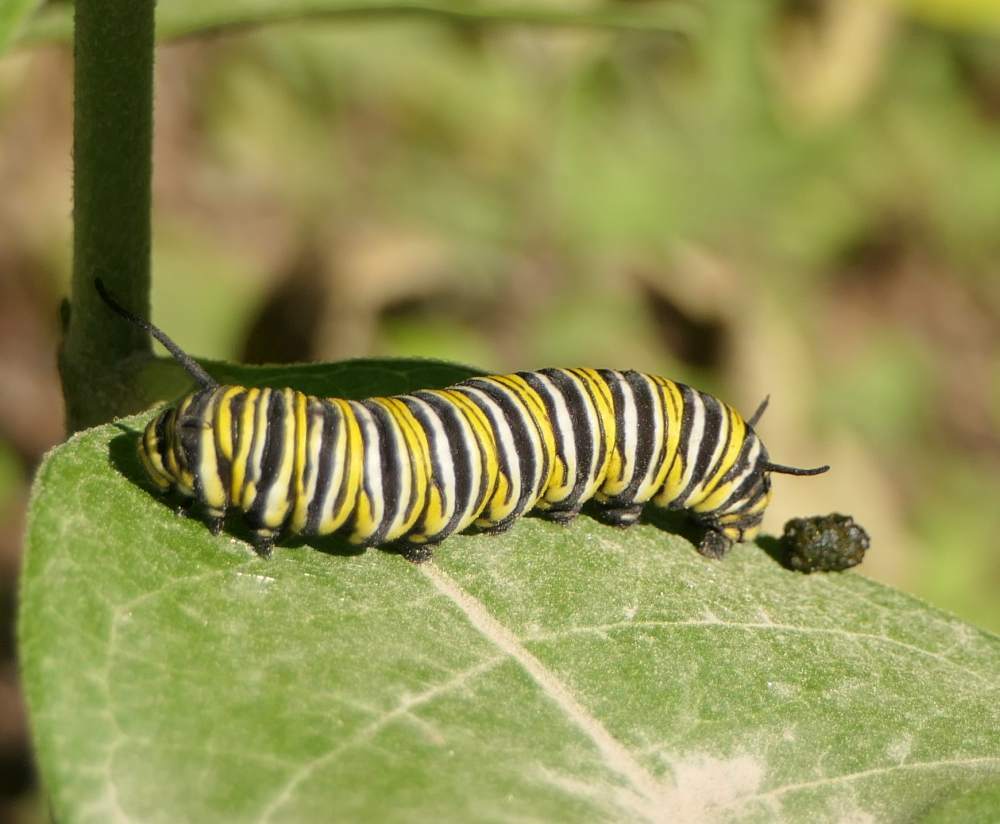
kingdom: Animalia
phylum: Arthropoda
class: Insecta
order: Lepidoptera
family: Nymphalidae
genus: Danaus
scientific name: Danaus plexippus
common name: Monarch
